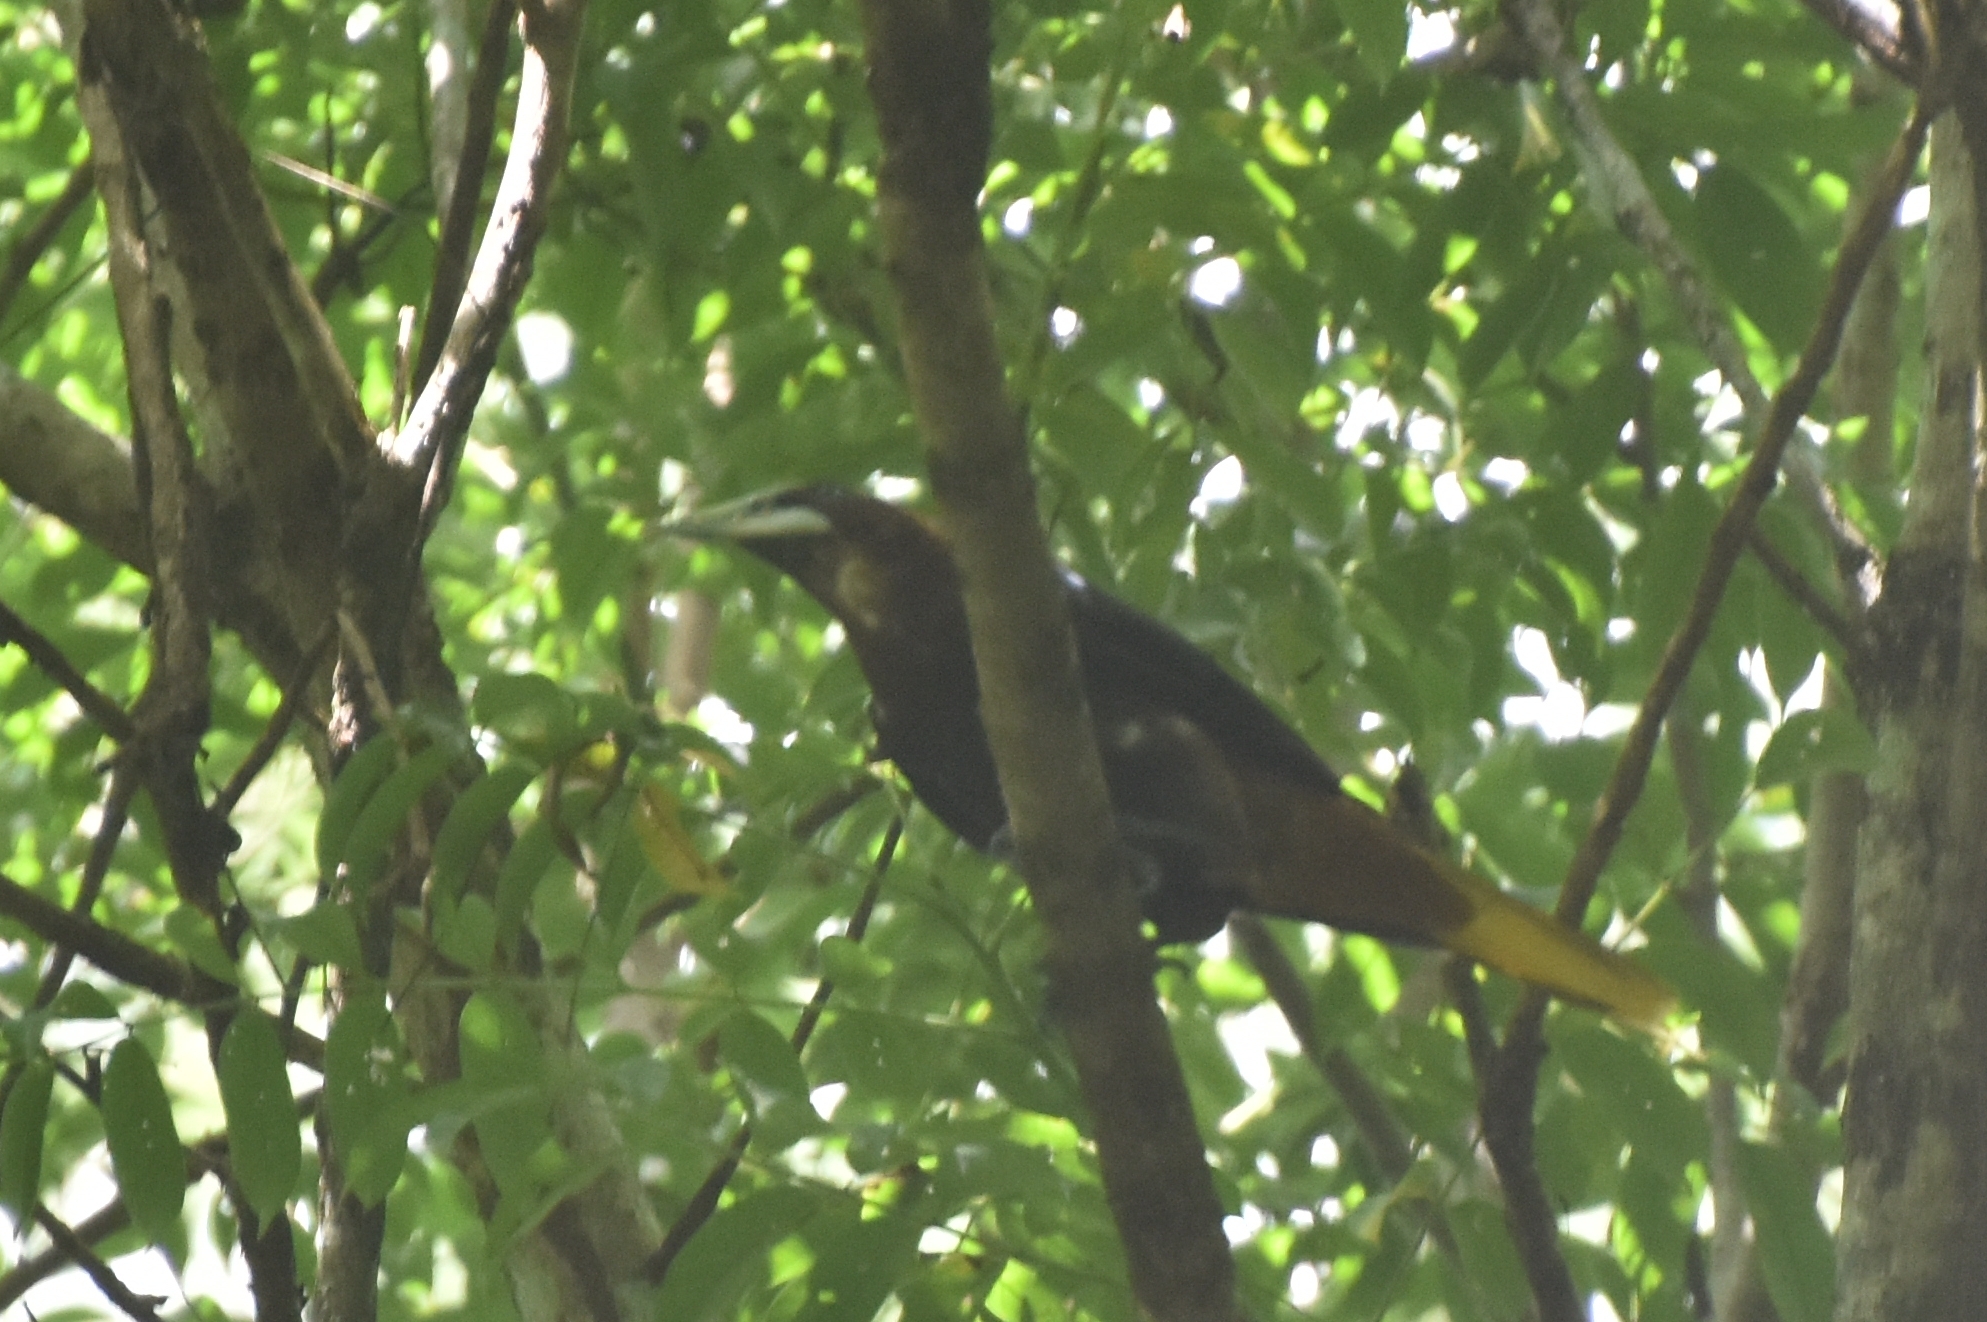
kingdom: Animalia
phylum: Chordata
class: Aves
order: Passeriformes
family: Icteridae
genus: Psarocolius
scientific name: Psarocolius wagleri
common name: Chestnut-headed oropendola
